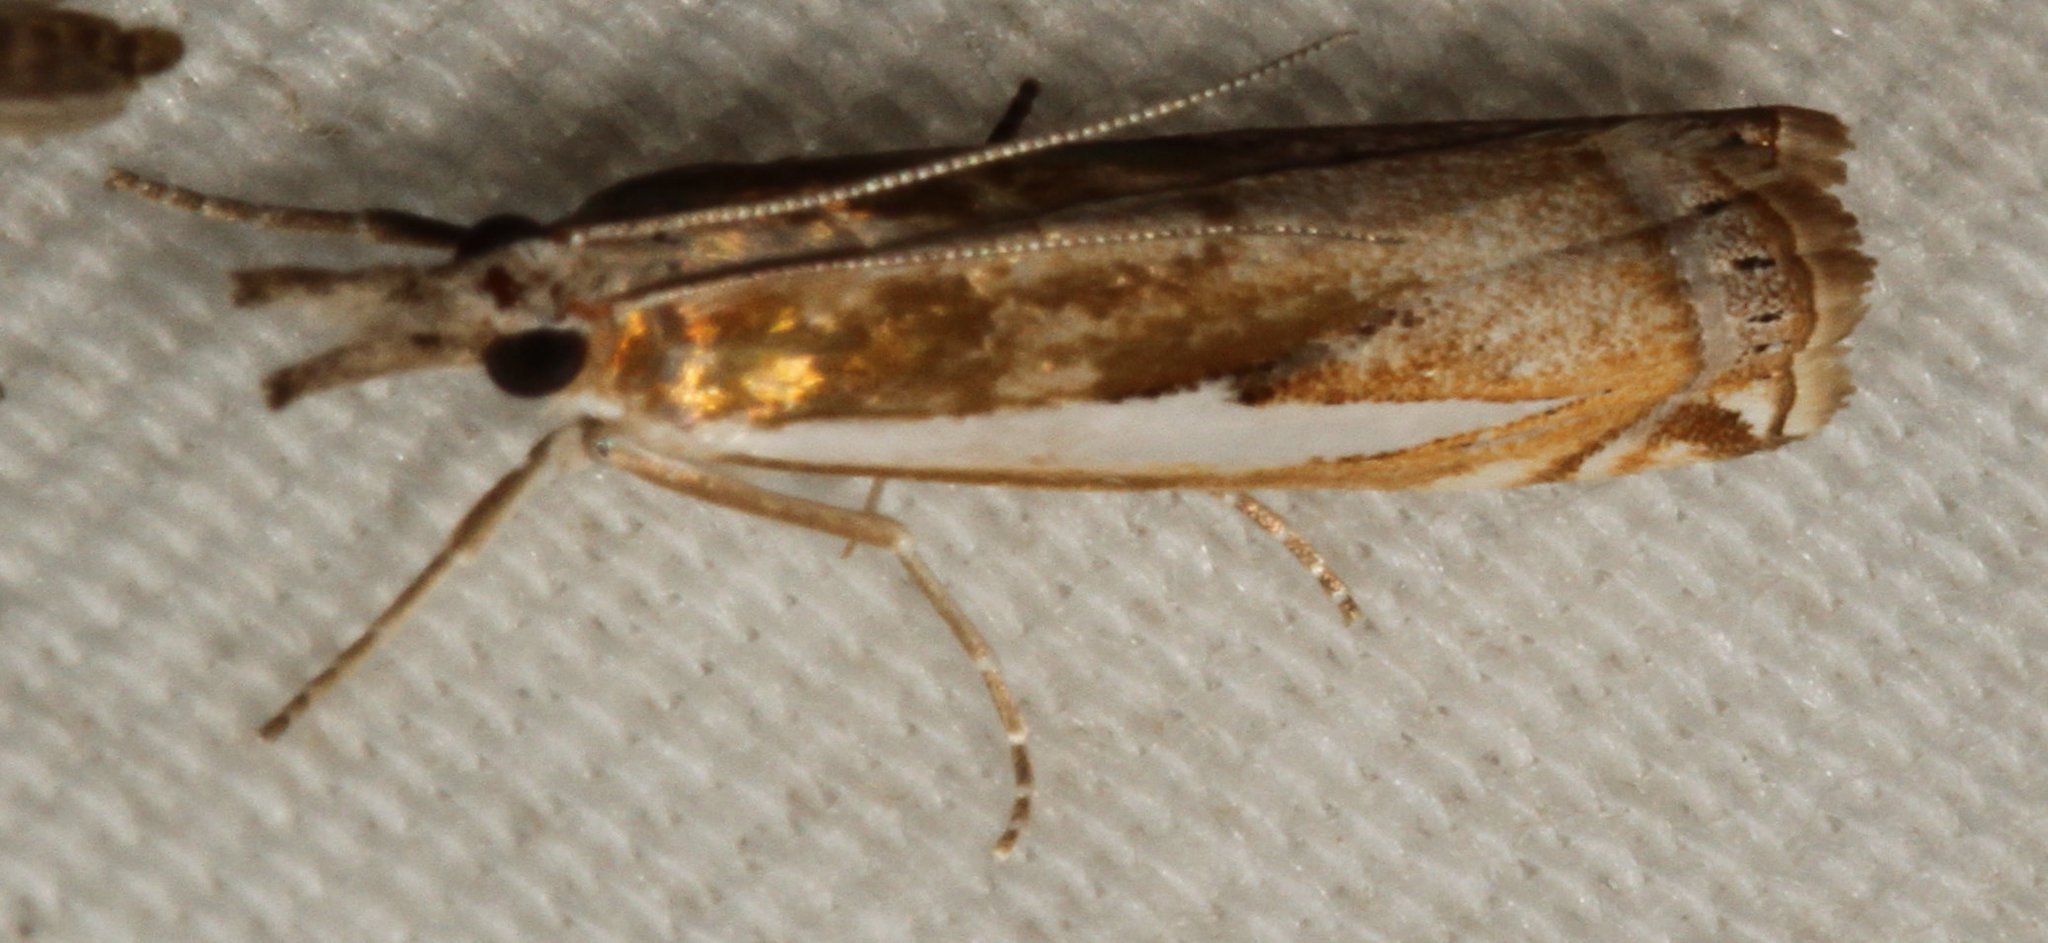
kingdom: Animalia
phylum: Arthropoda
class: Insecta
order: Lepidoptera
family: Crambidae
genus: Crambus
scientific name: Crambus praefectellus
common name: Common grass-veneer
